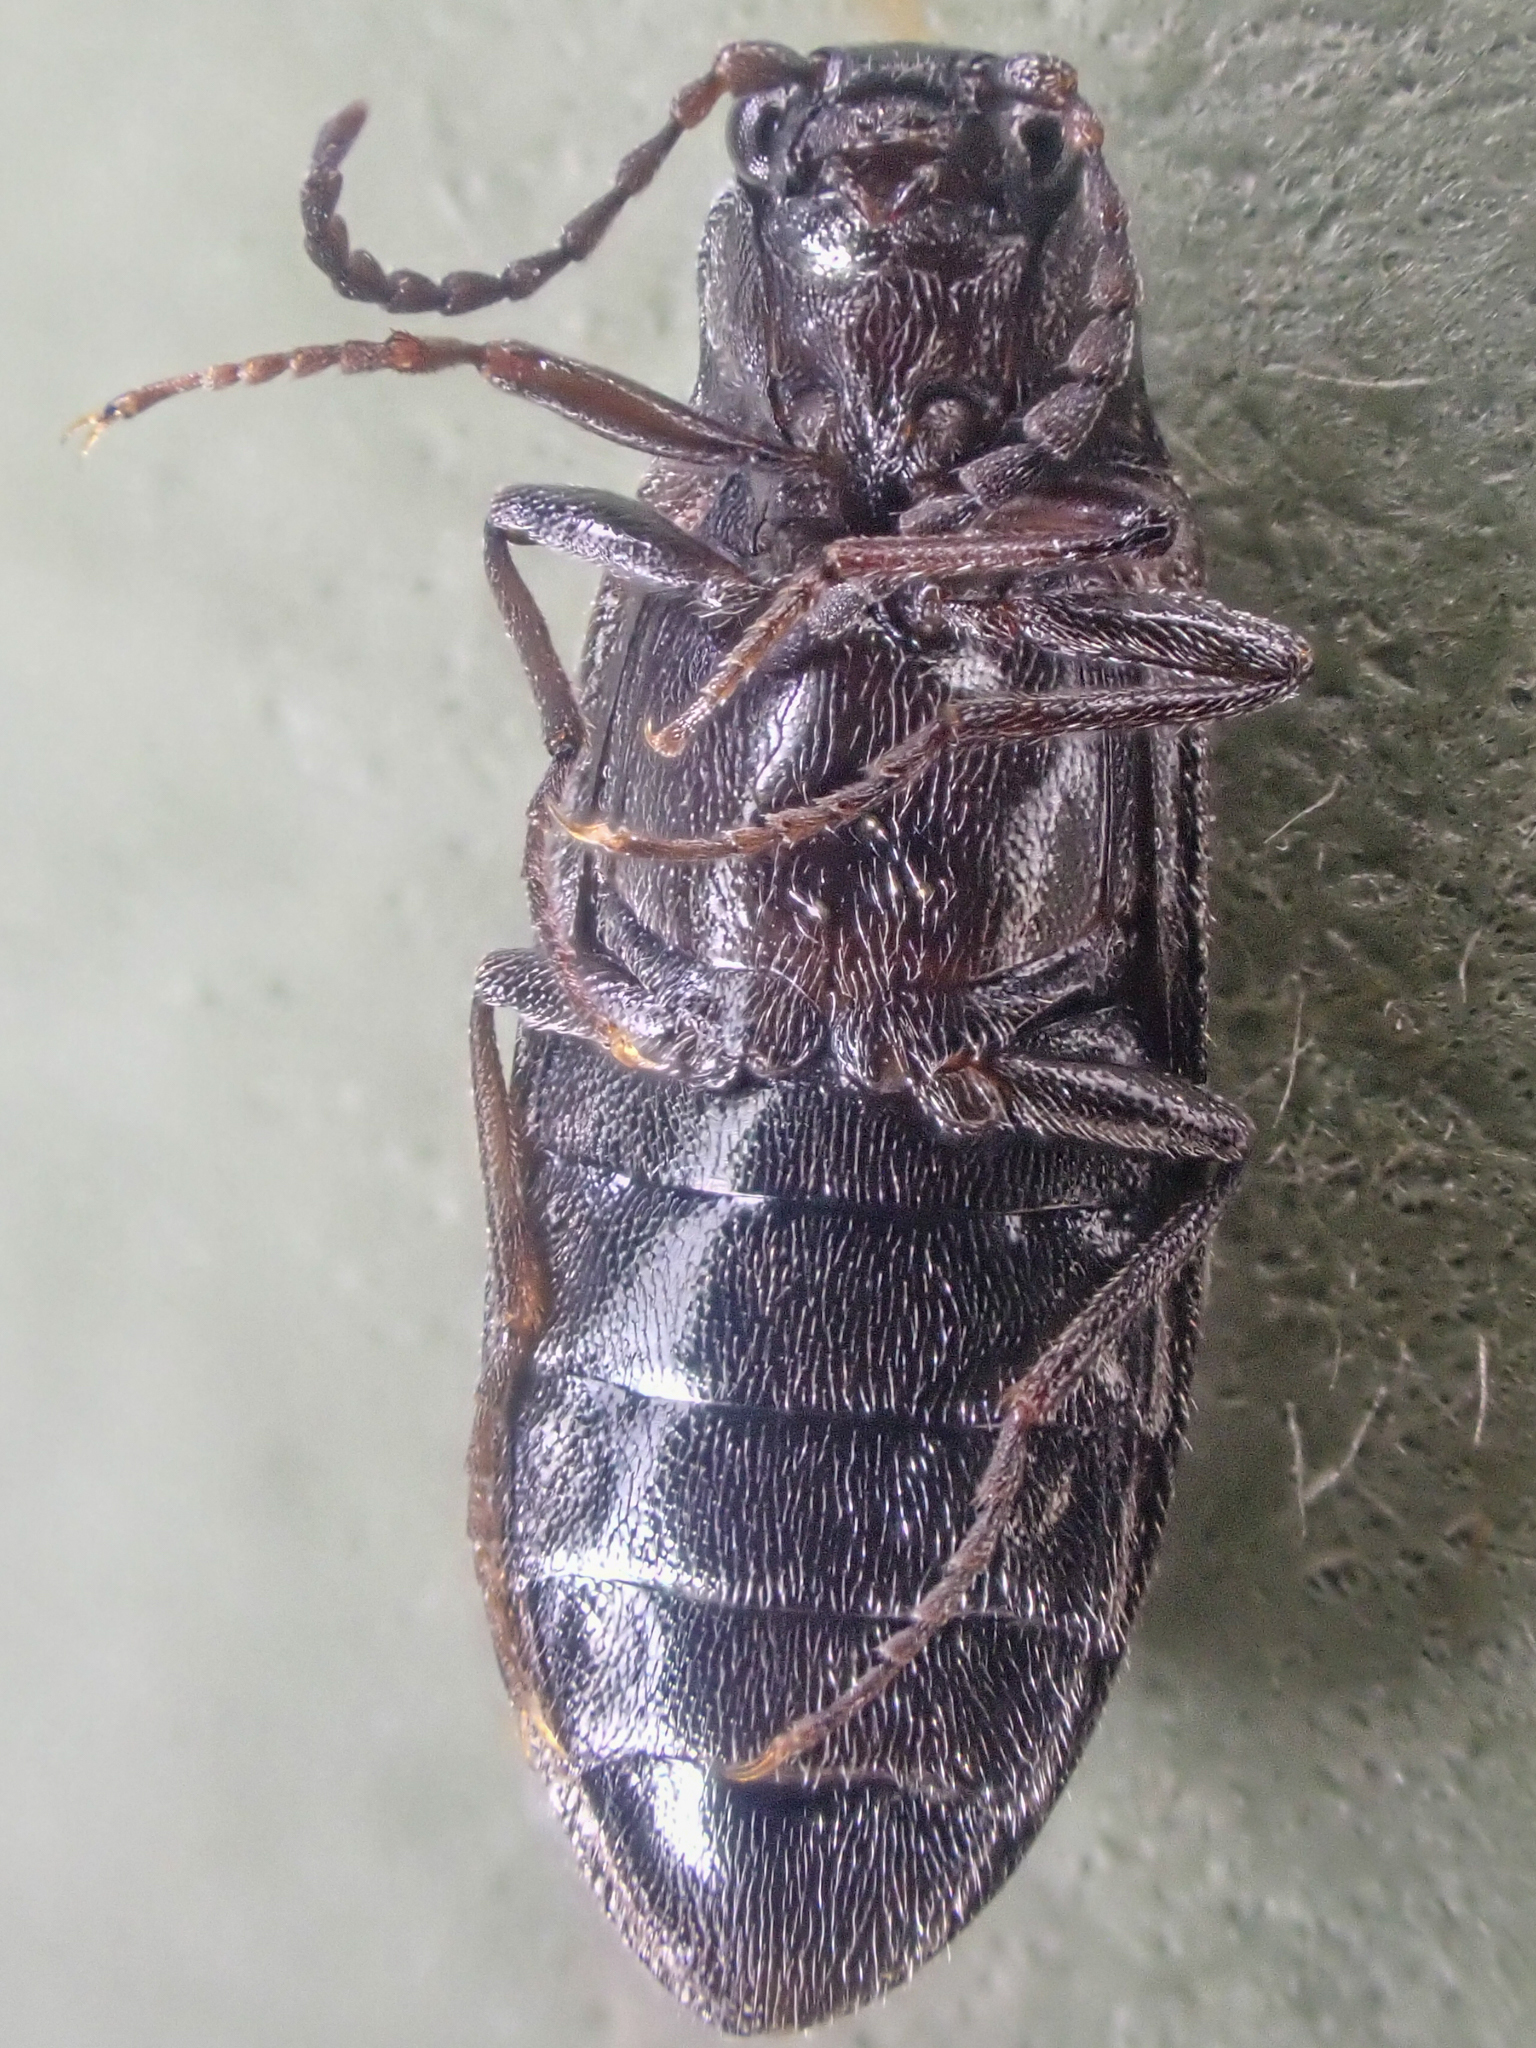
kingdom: Animalia
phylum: Arthropoda
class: Insecta
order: Coleoptera
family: Elateridae
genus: Eanus
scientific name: Eanus estriatus
